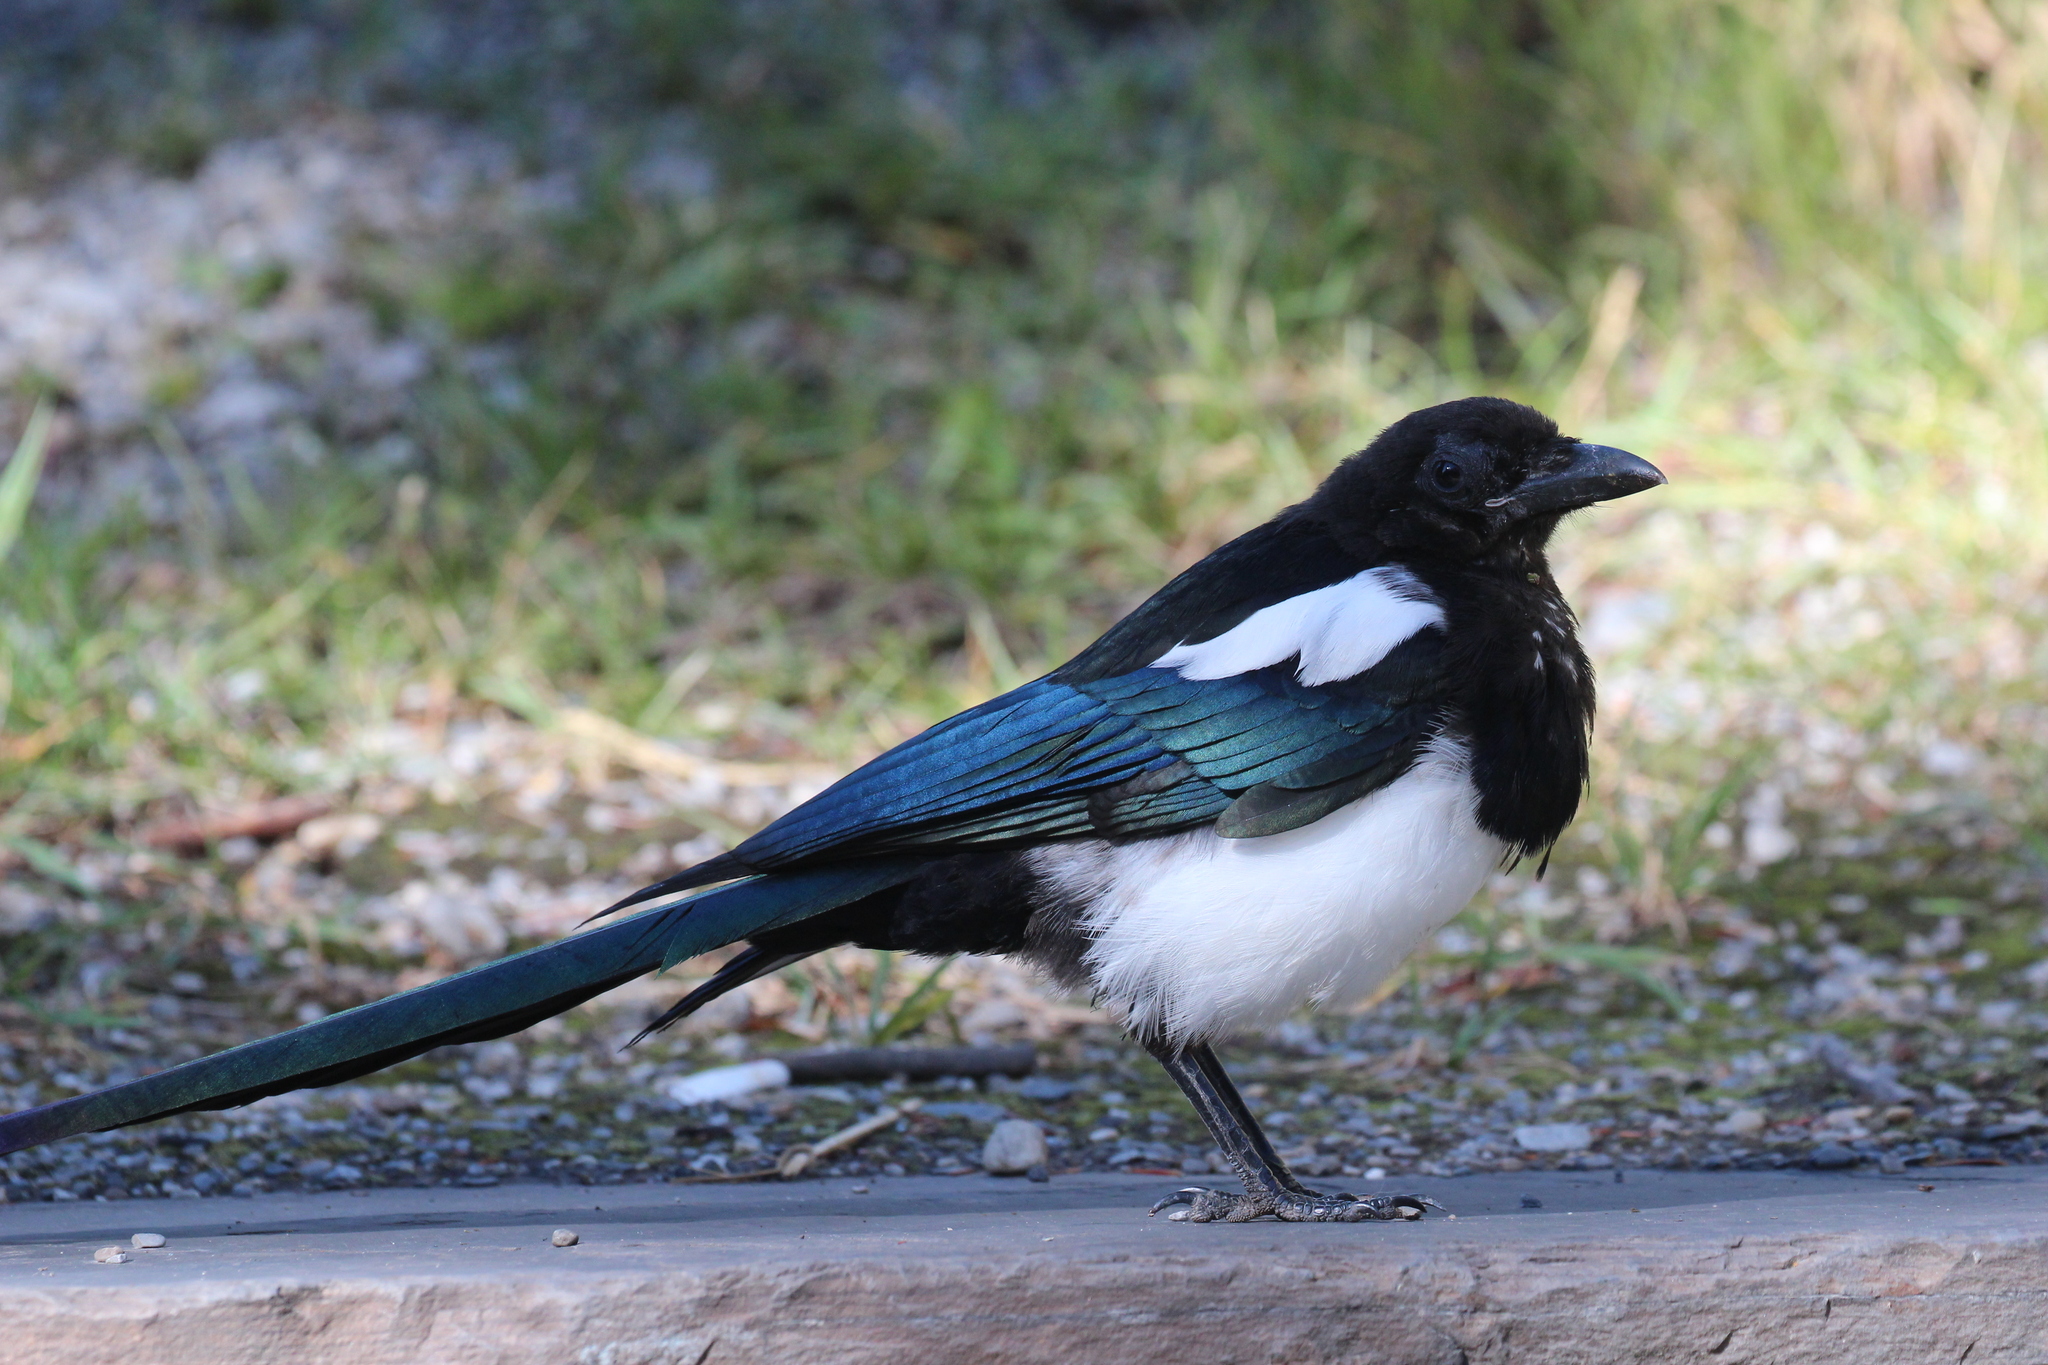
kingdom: Animalia
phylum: Chordata
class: Aves
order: Passeriformes
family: Corvidae
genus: Pica
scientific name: Pica hudsonia
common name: Black-billed magpie
